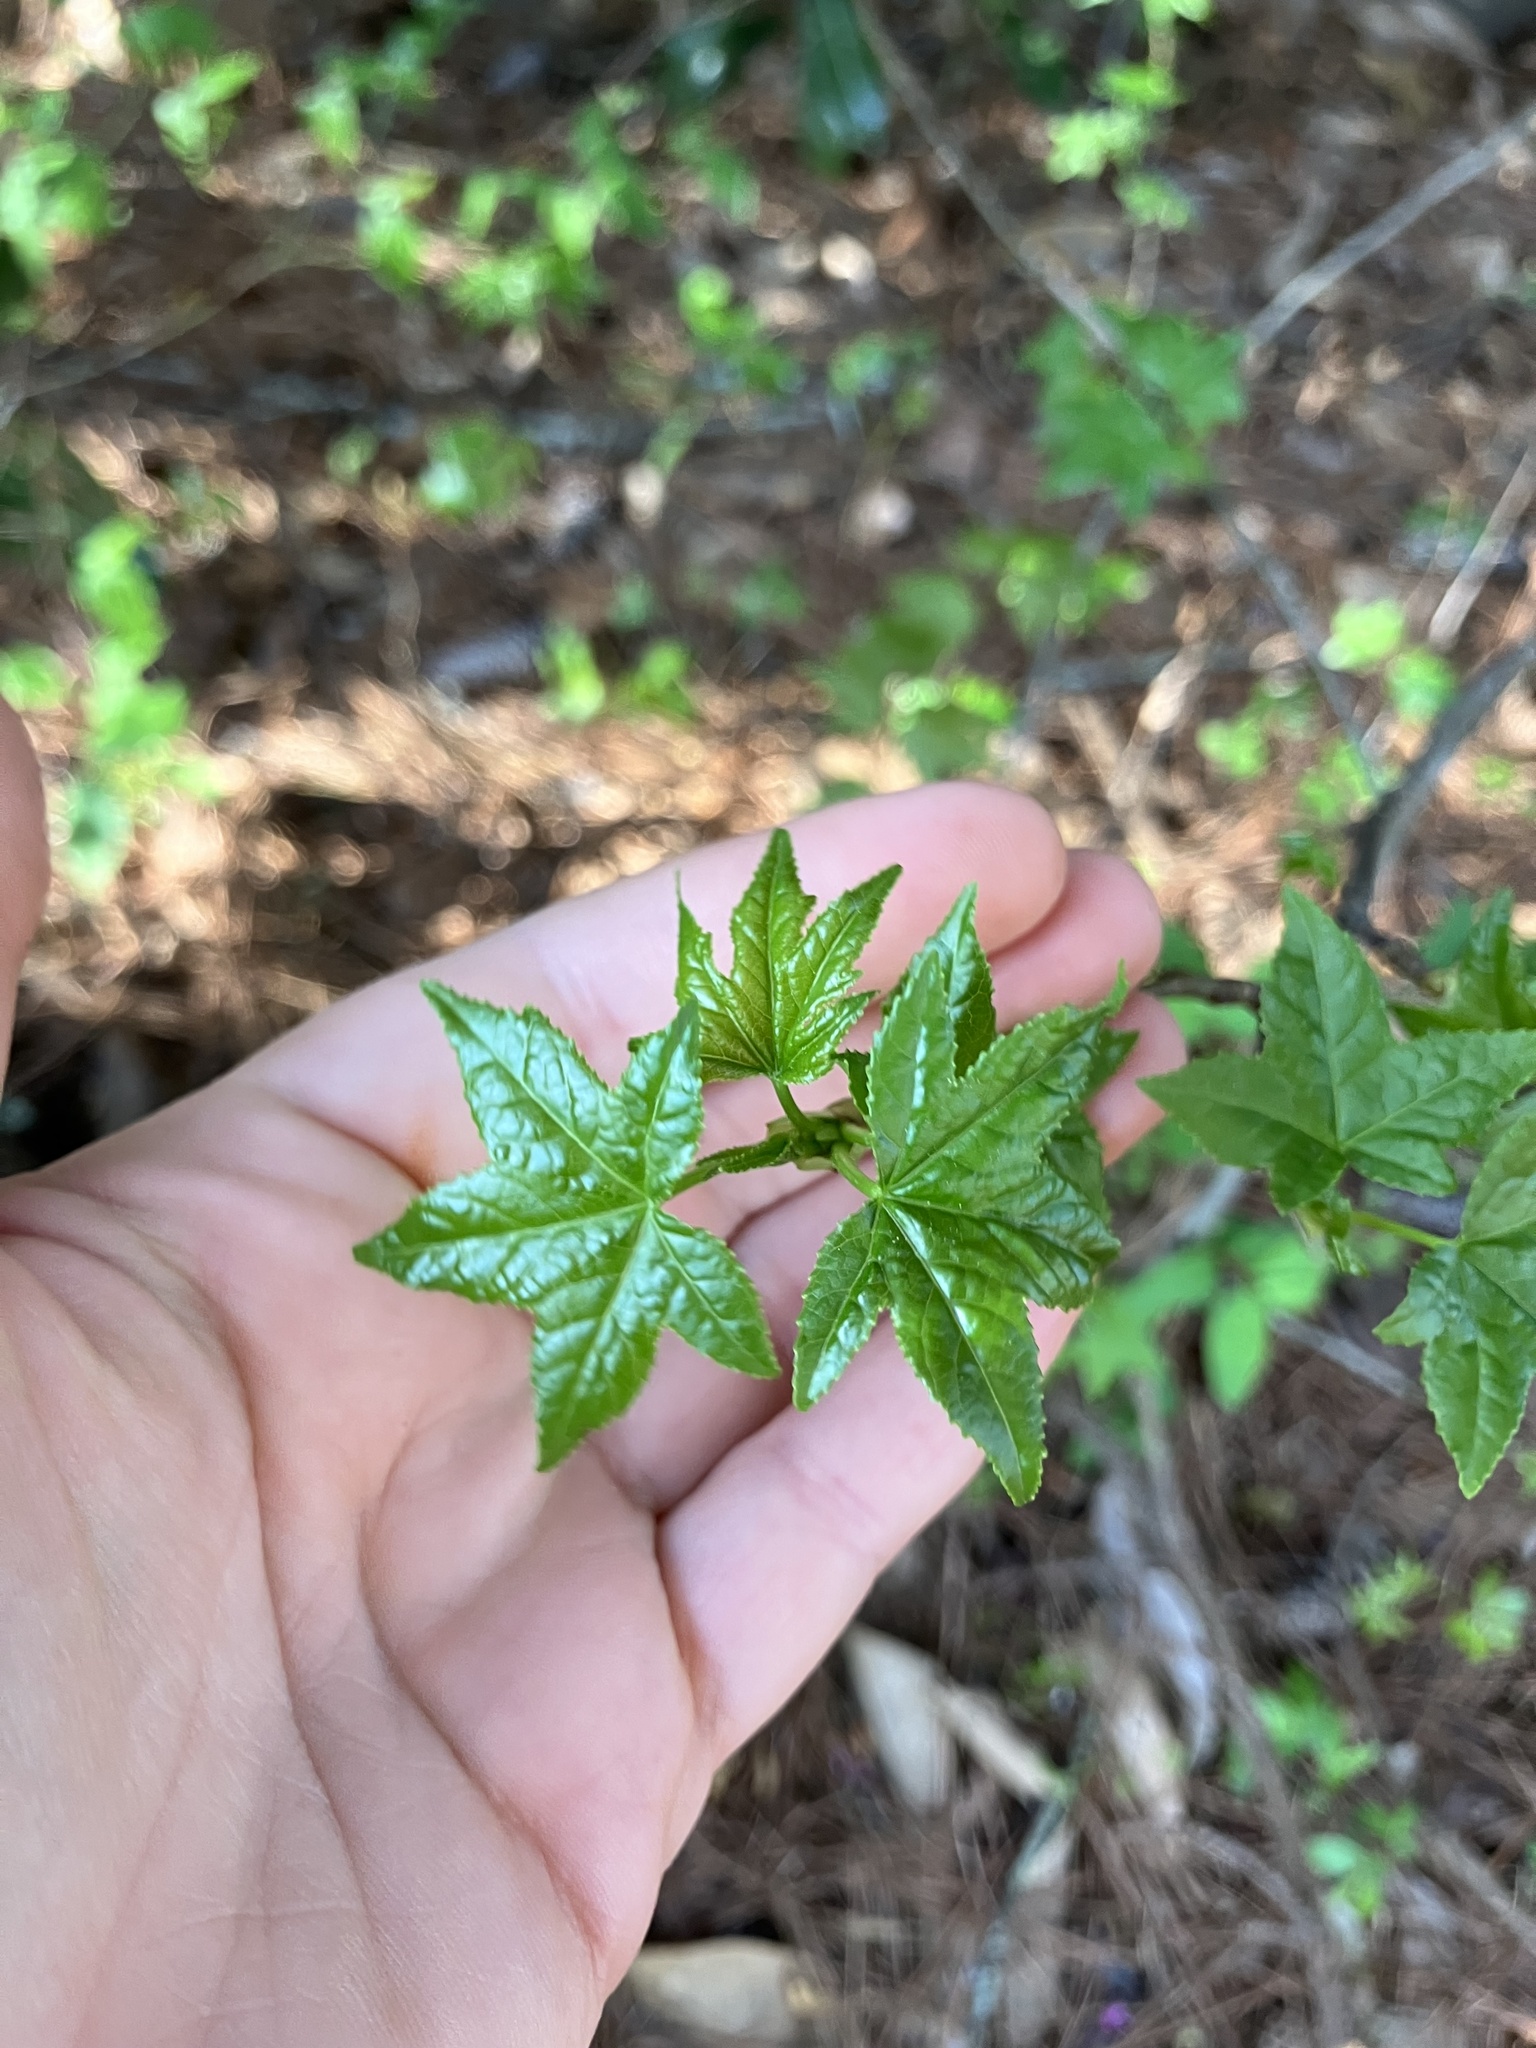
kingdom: Plantae
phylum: Tracheophyta
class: Magnoliopsida
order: Saxifragales
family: Altingiaceae
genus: Liquidambar
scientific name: Liquidambar styraciflua
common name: Sweet gum
